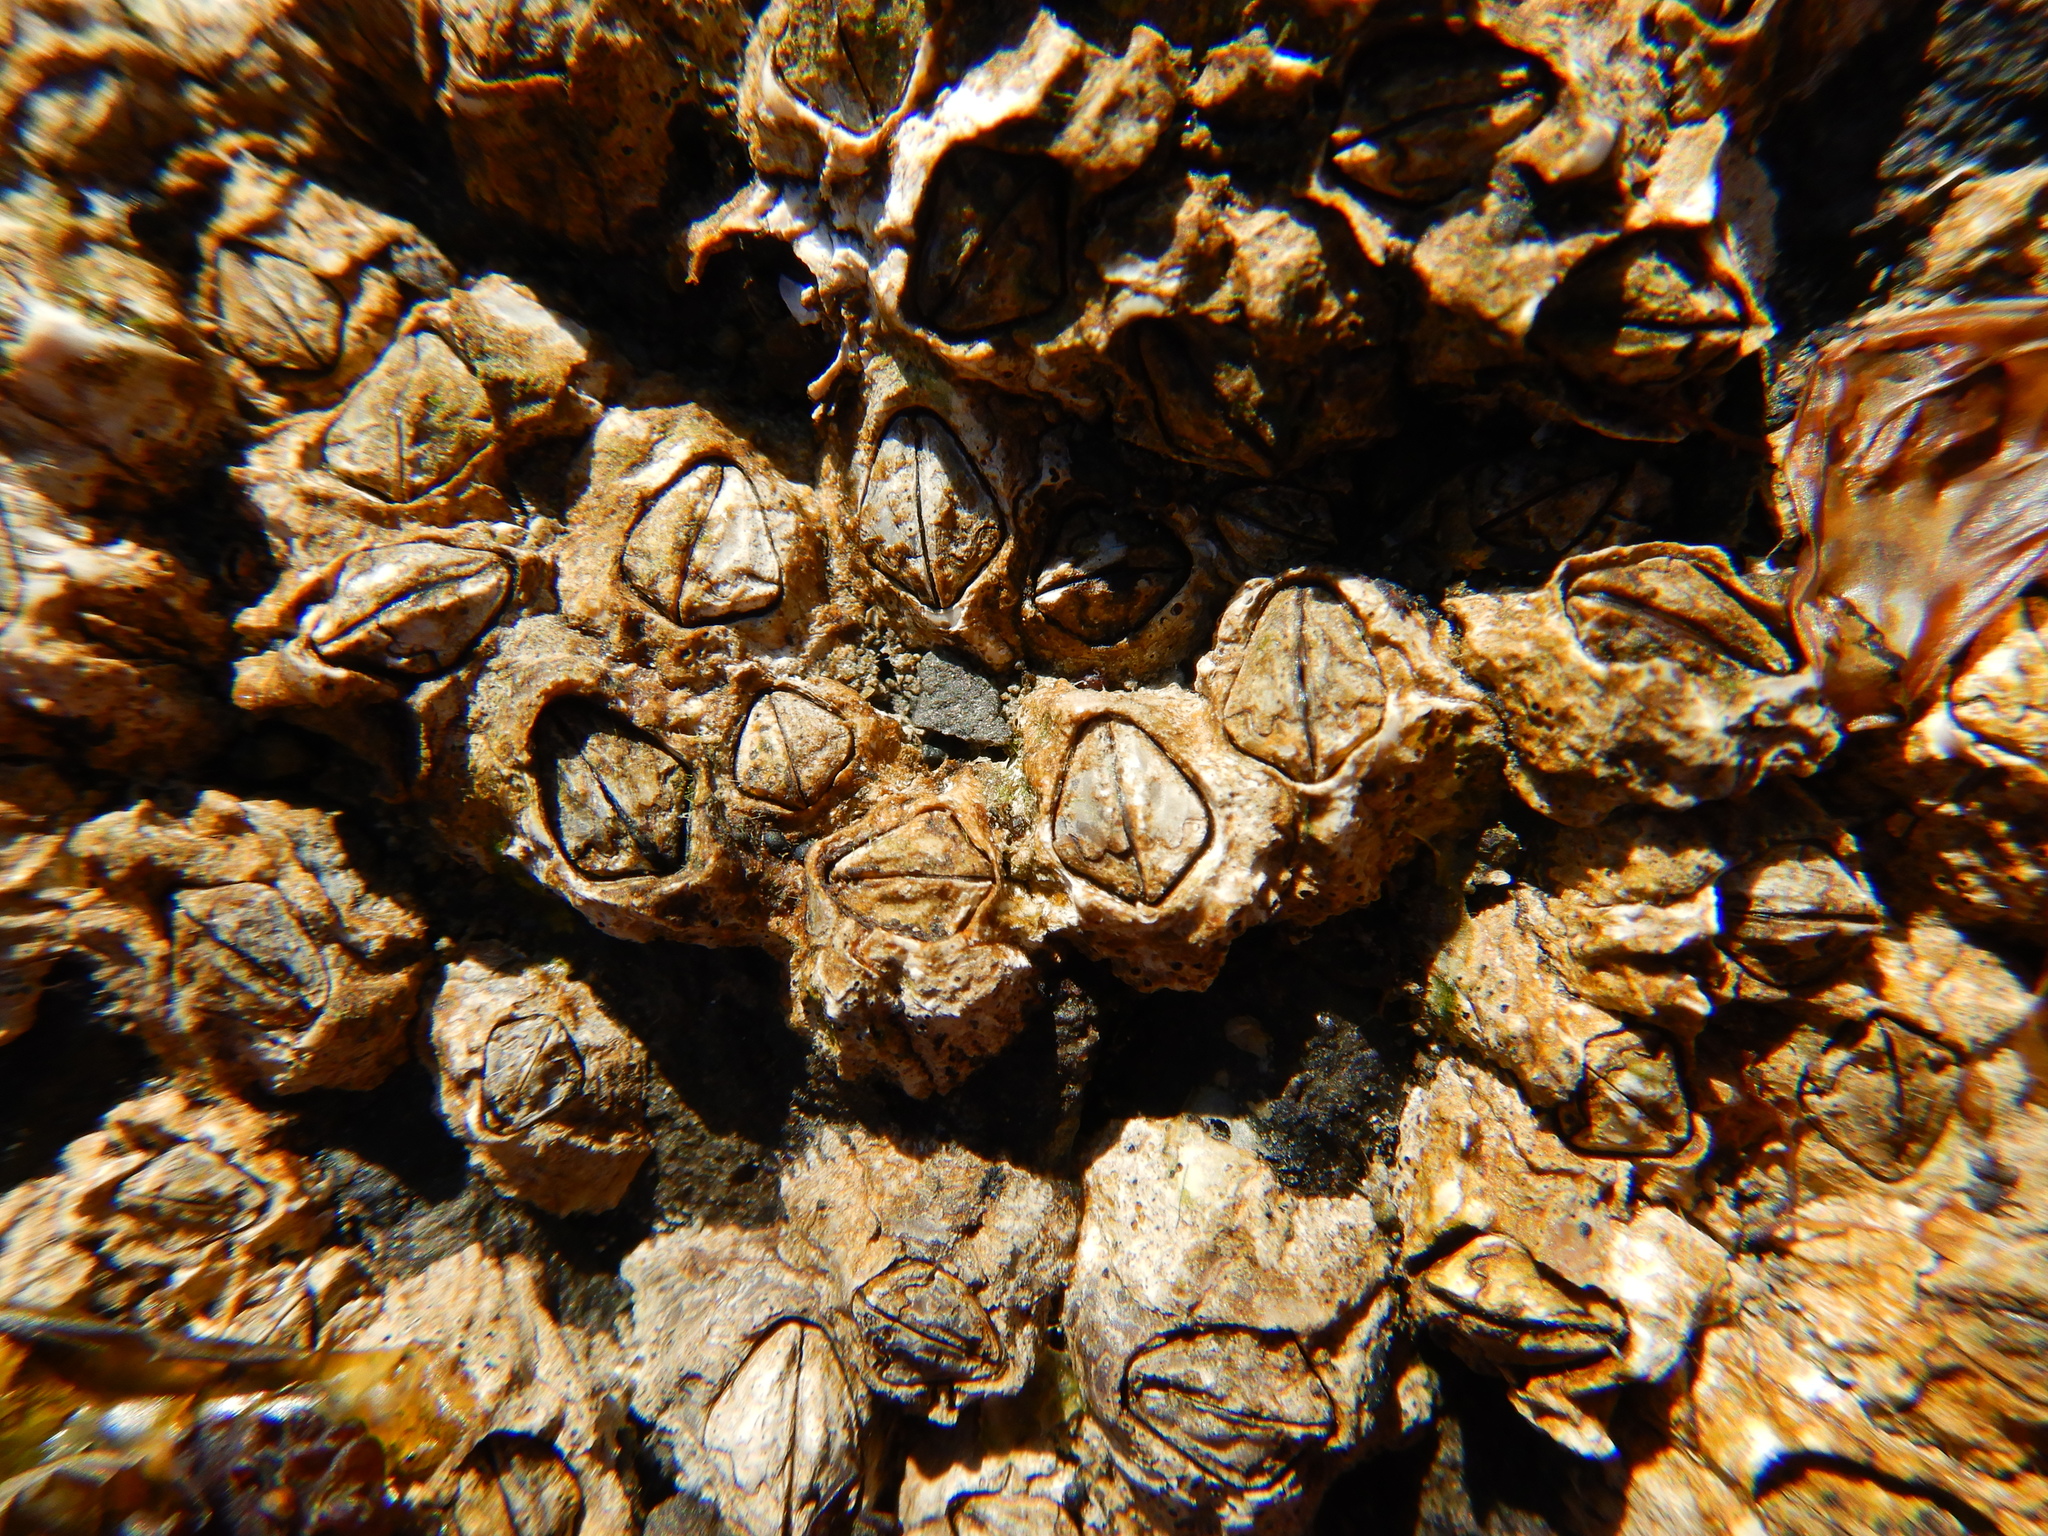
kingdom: Animalia
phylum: Arthropoda
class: Maxillopoda
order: Sessilia
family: Chthamalidae
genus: Notochthamalus
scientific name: Notochthamalus scabrosus
